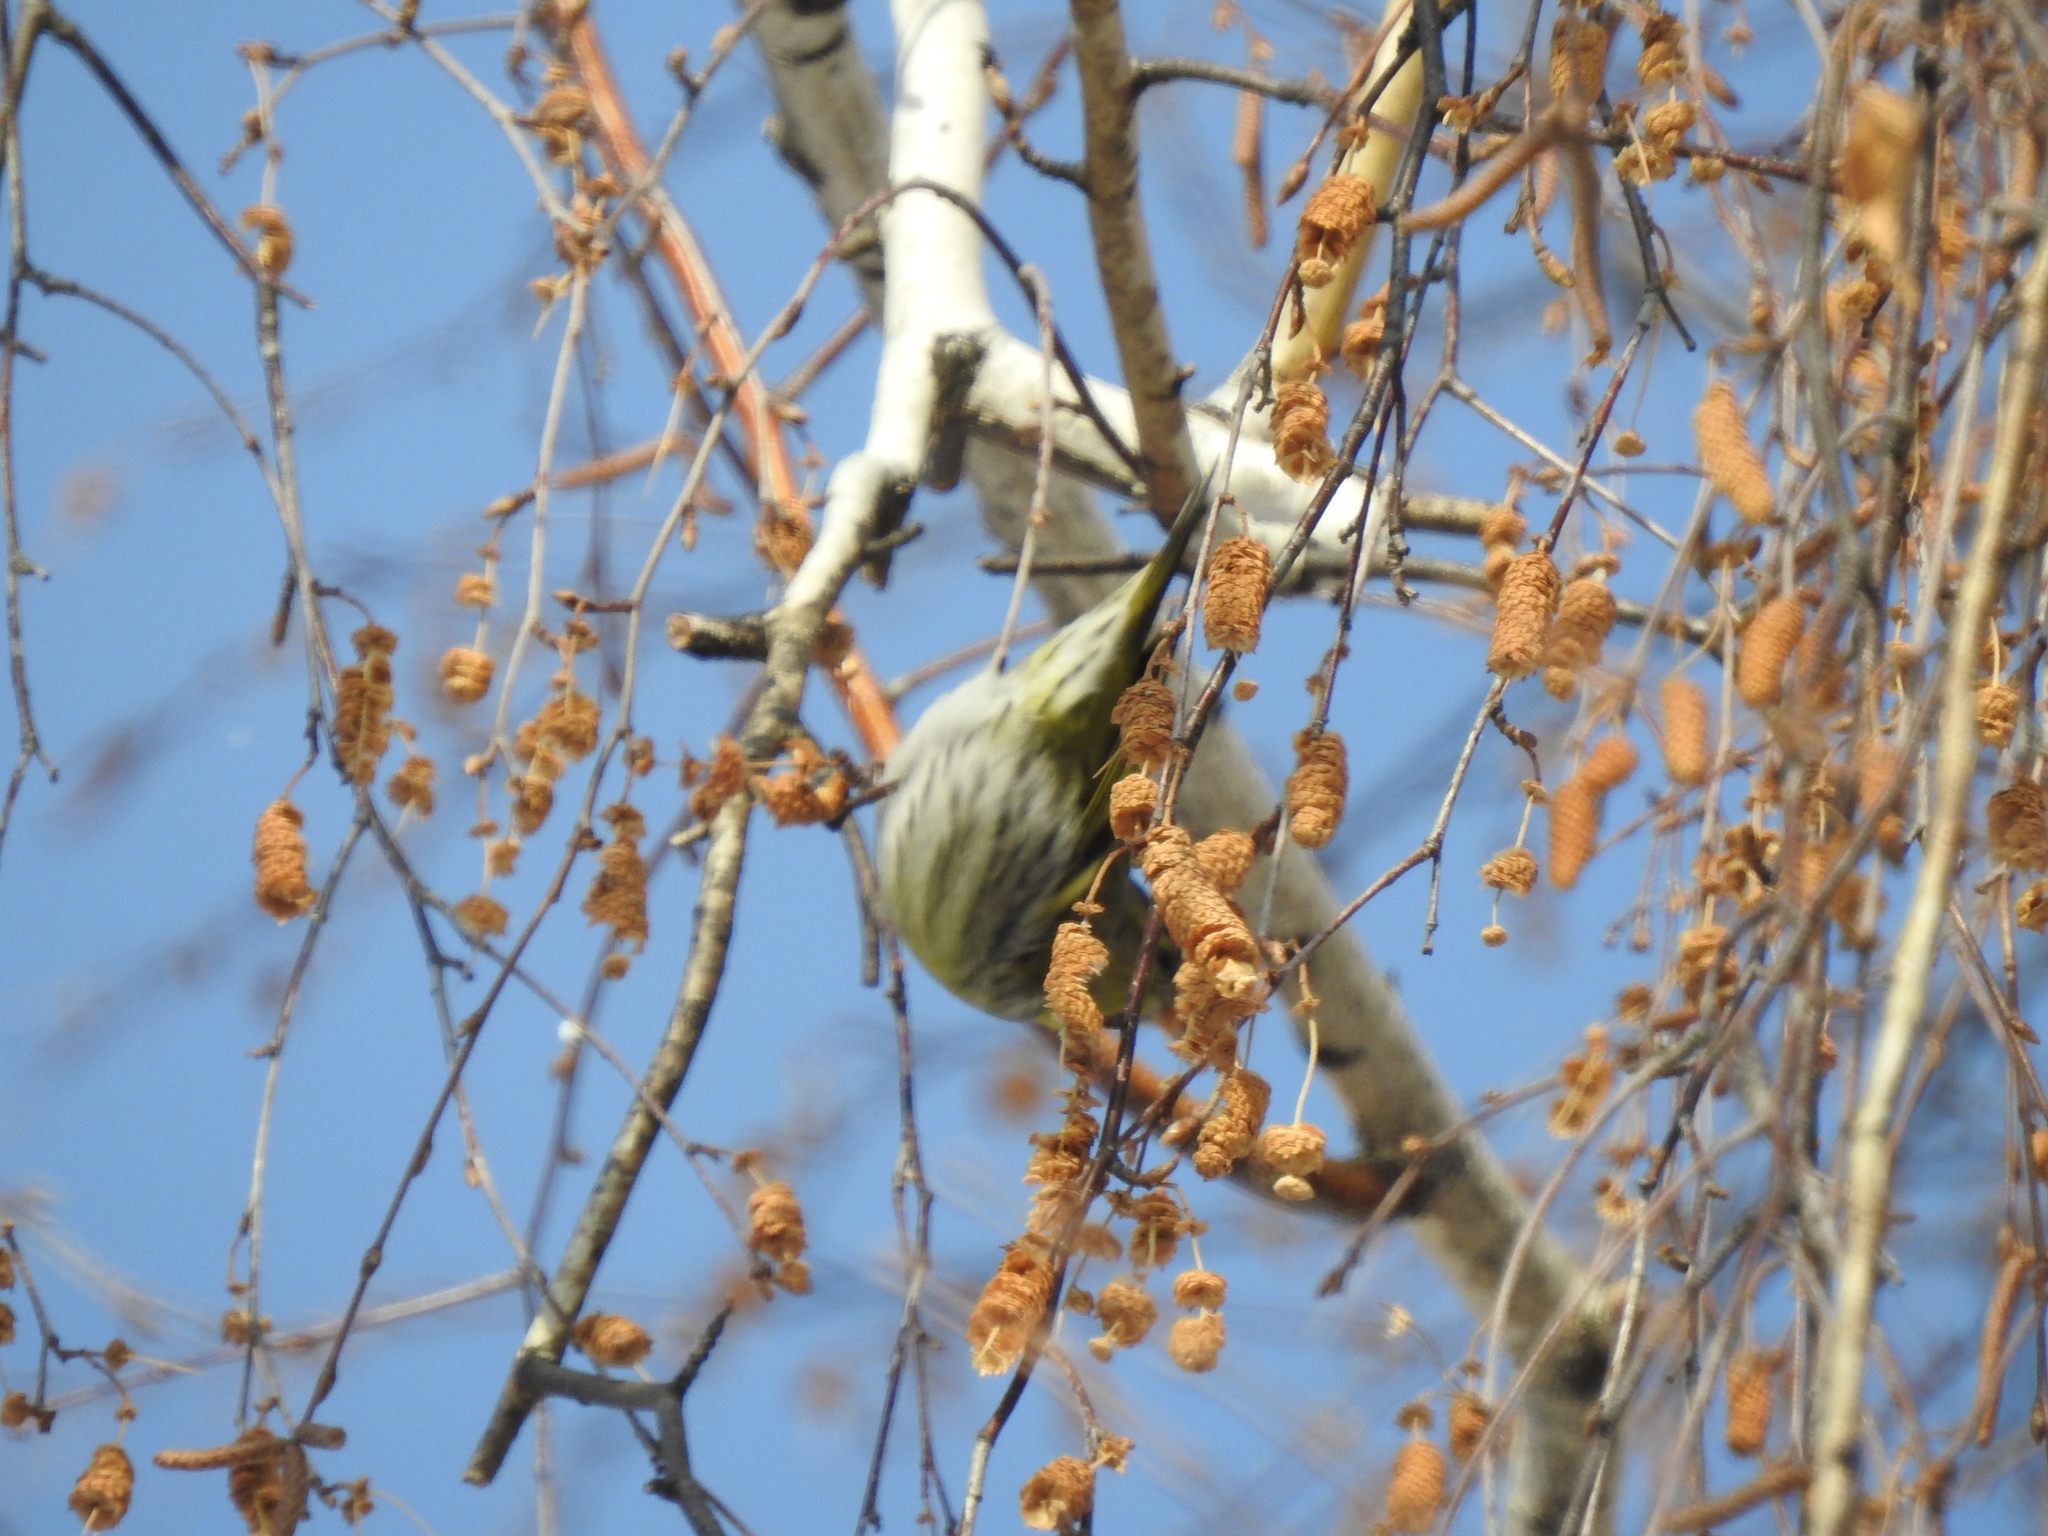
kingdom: Animalia
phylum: Chordata
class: Aves
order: Passeriformes
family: Fringillidae
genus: Spinus
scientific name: Spinus spinus
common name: Eurasian siskin
